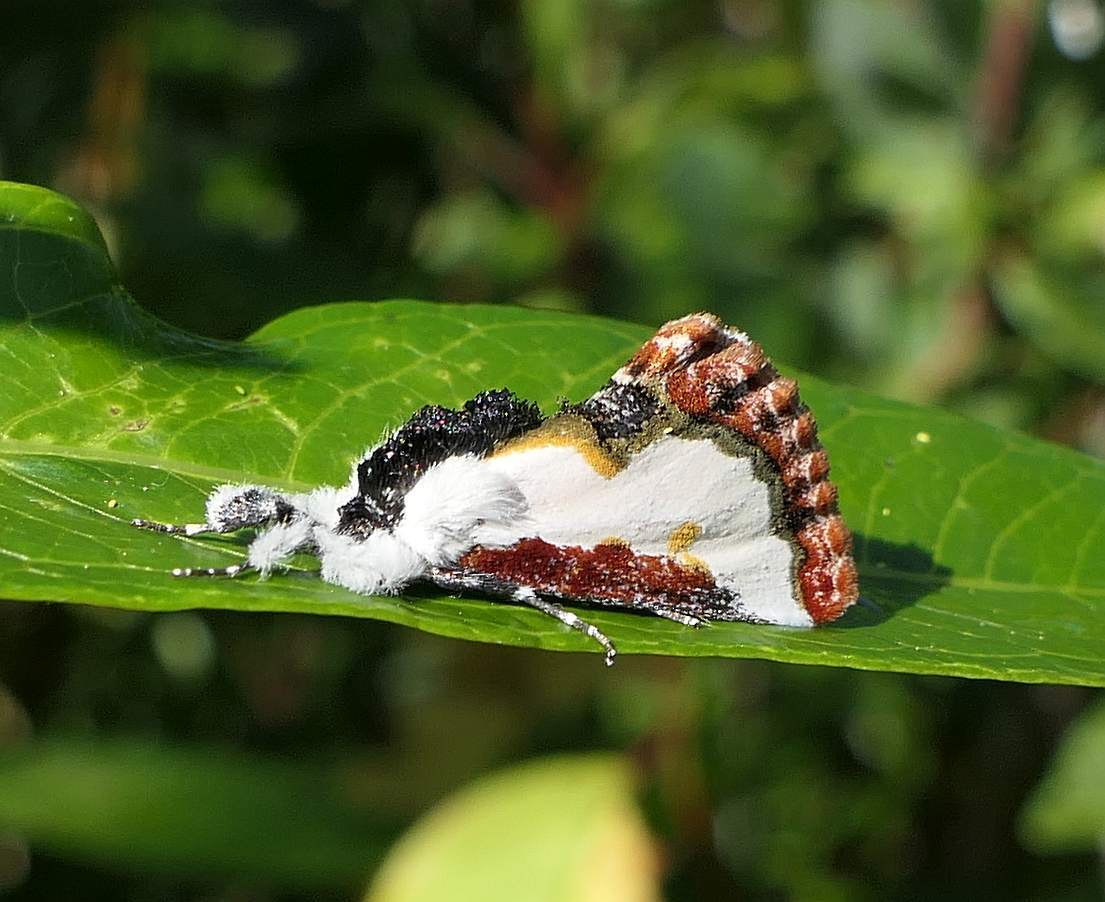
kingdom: Animalia
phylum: Arthropoda
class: Insecta
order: Lepidoptera
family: Noctuidae
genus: Eudryas
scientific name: Eudryas unio
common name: Pearly wood-nymph
